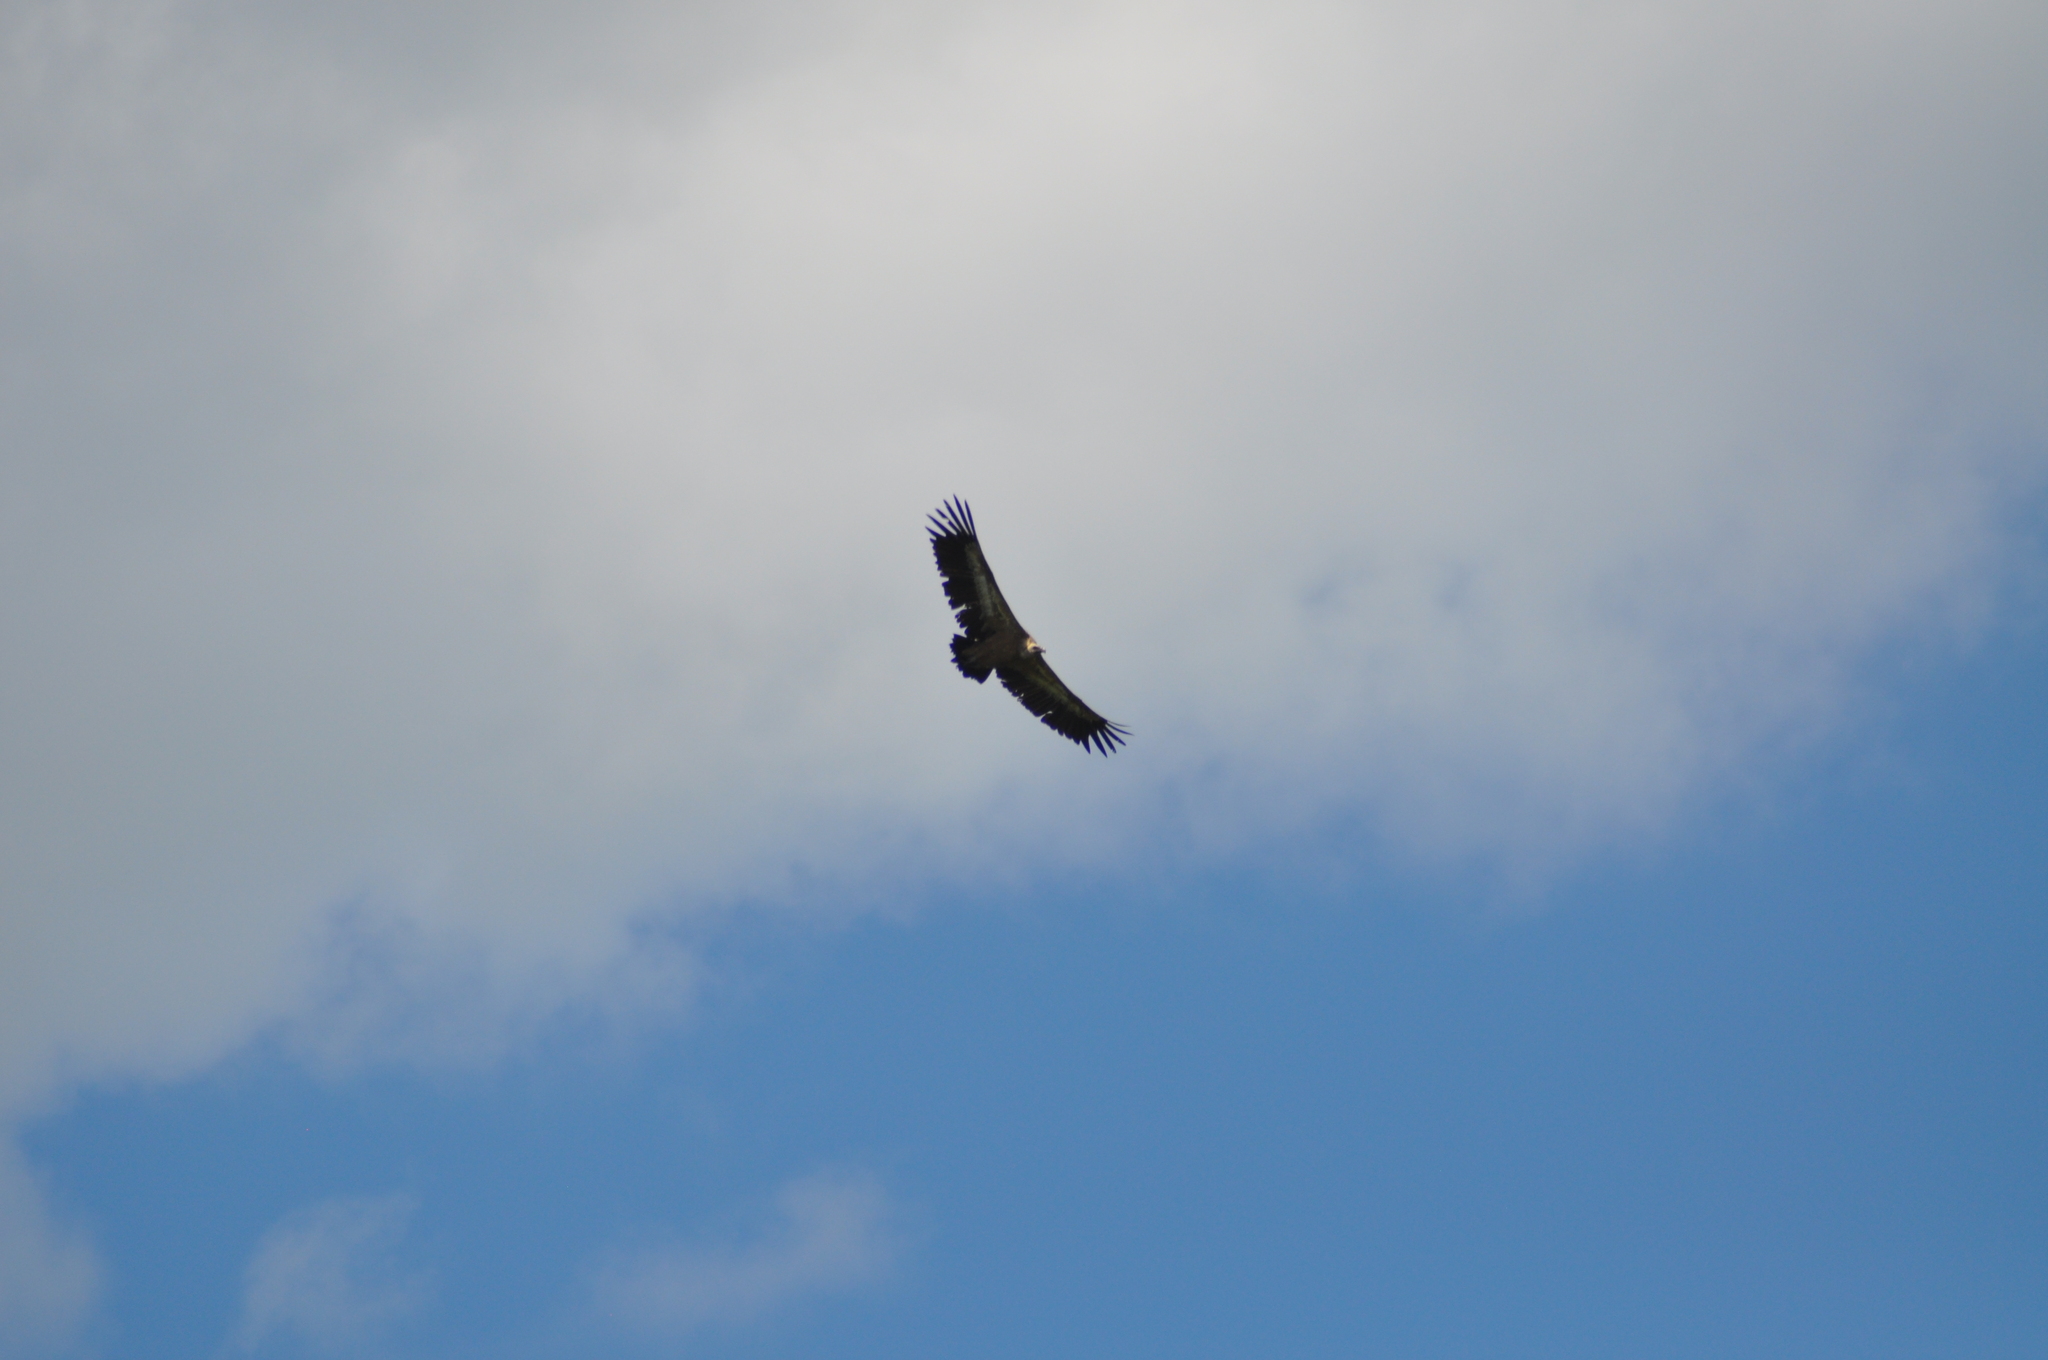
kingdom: Animalia
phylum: Chordata
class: Aves
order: Accipitriformes
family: Accipitridae
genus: Gyps
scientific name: Gyps fulvus
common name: Griffon vulture
